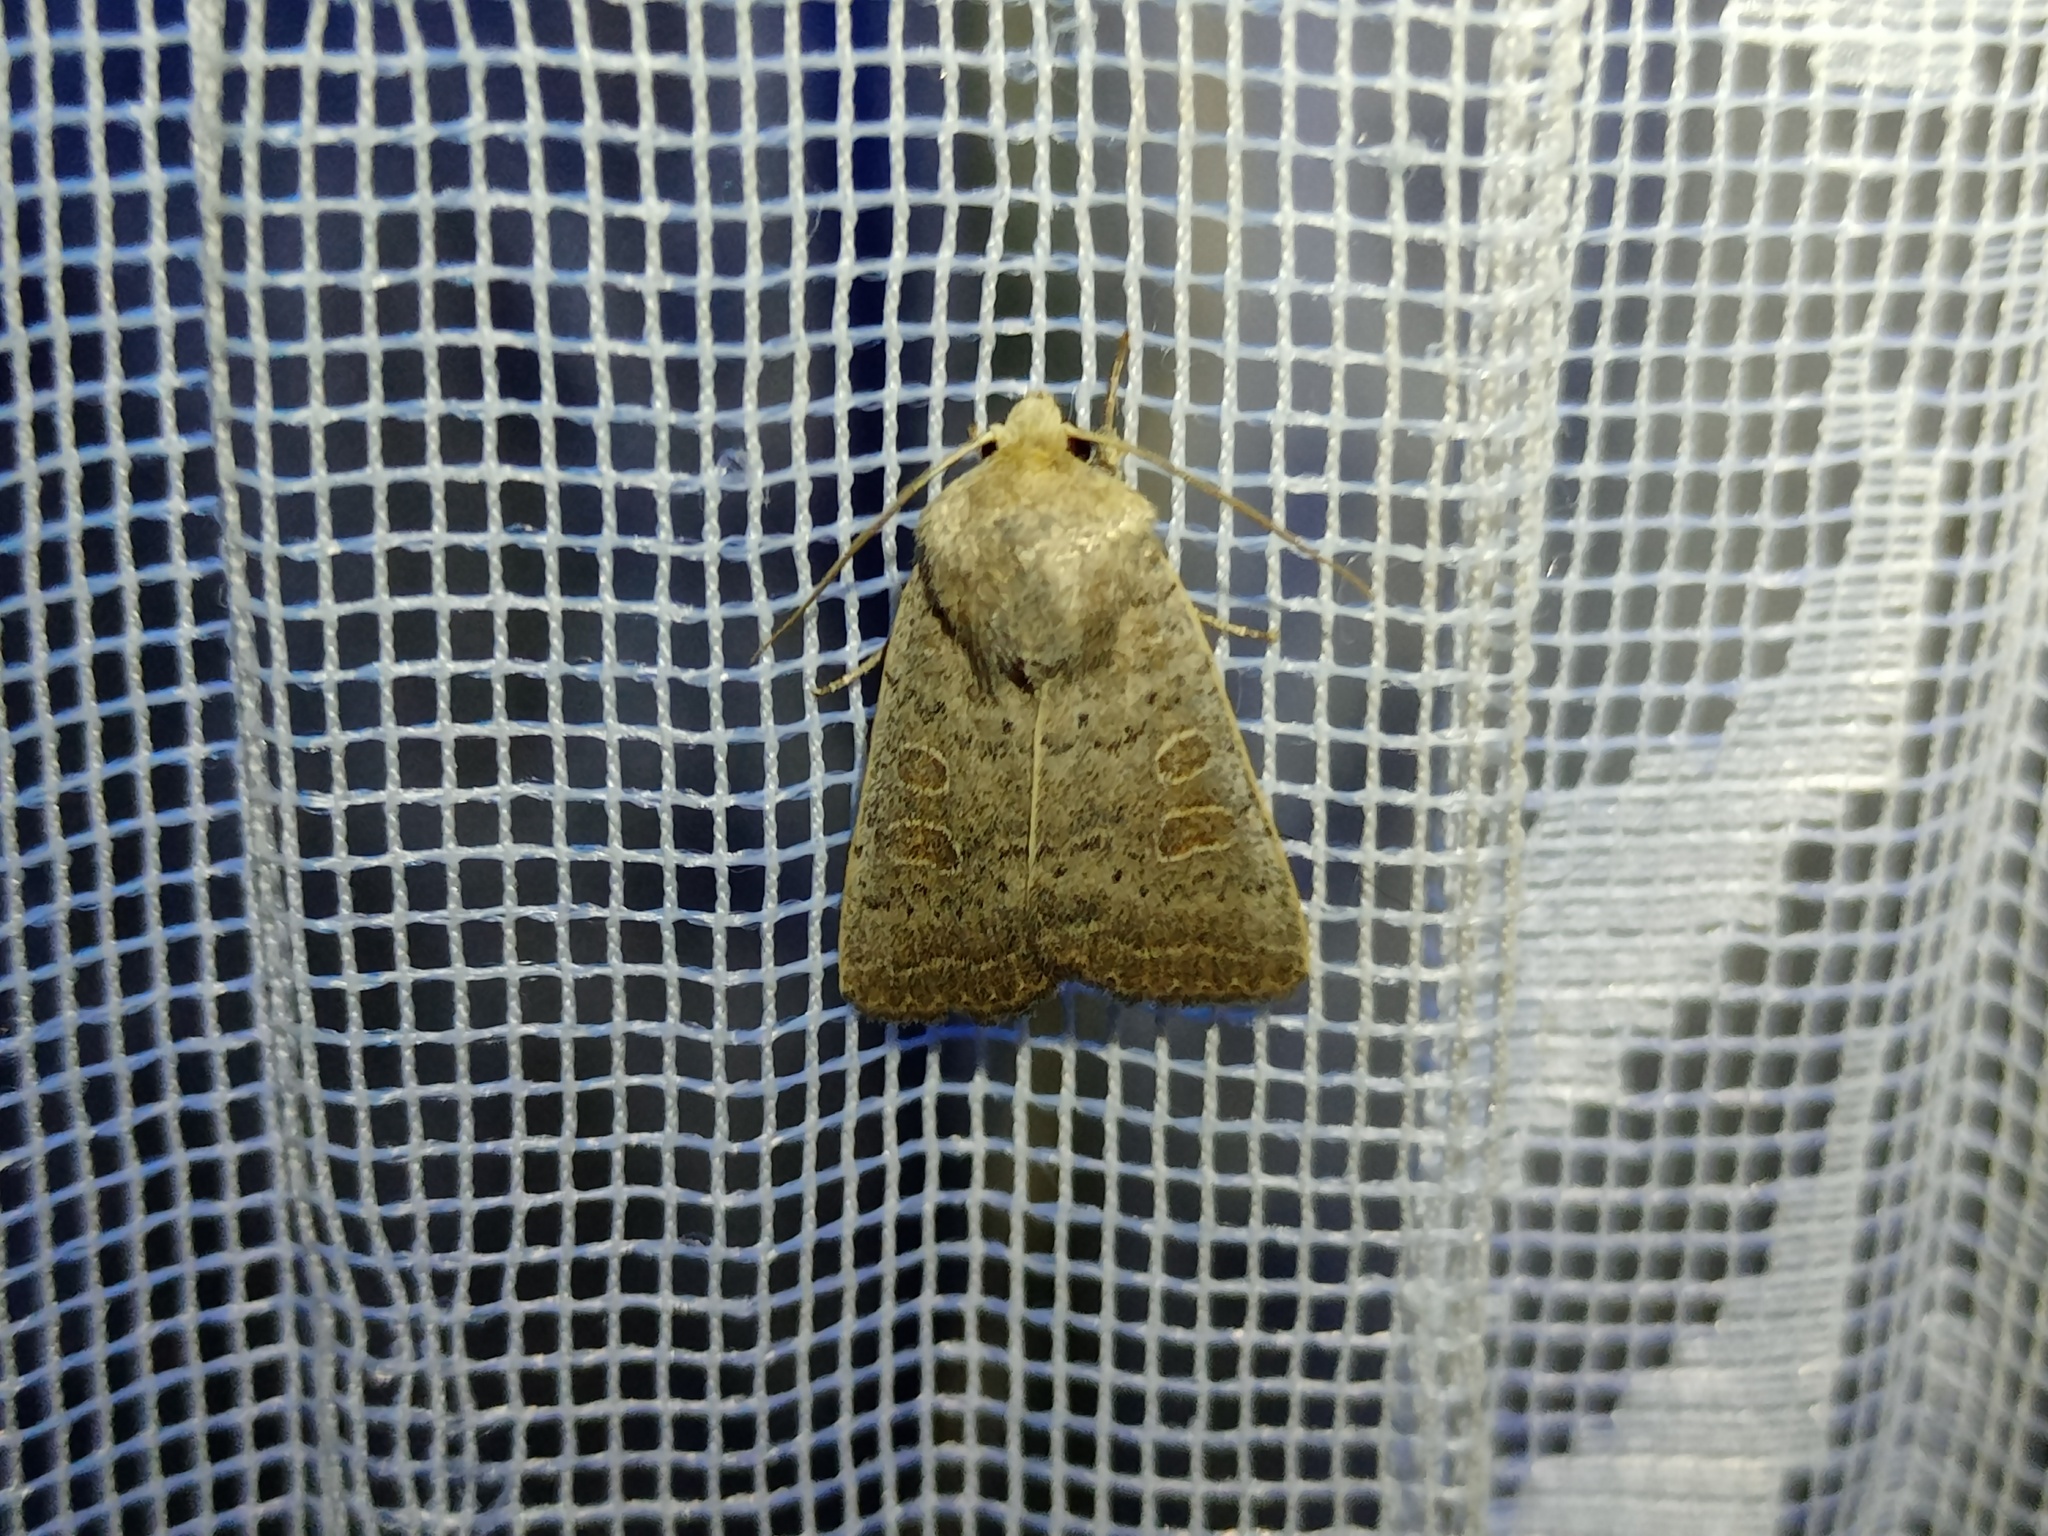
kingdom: Animalia
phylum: Arthropoda
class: Insecta
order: Lepidoptera
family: Noctuidae
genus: Hoplodrina
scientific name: Hoplodrina ambigua
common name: Vine's rustic
